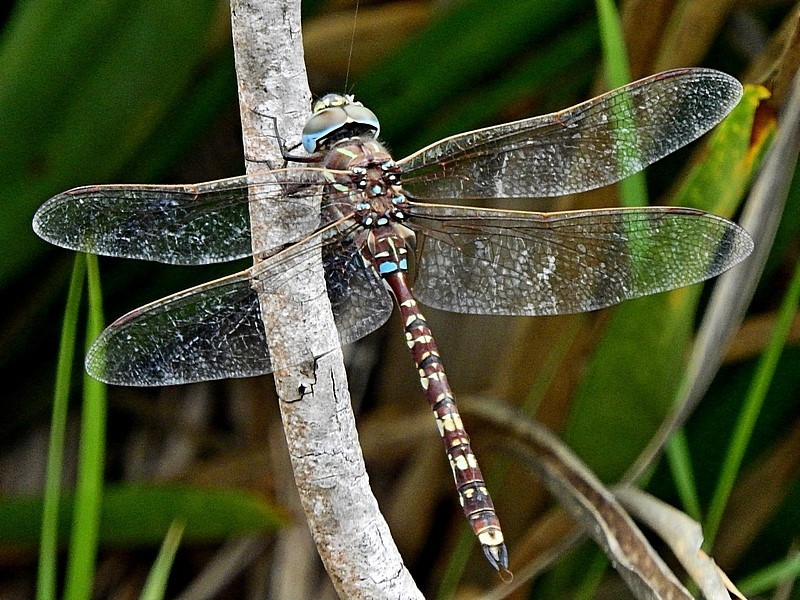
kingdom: Animalia
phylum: Arthropoda
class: Insecta
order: Odonata
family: Aeshnidae
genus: Aeshna
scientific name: Aeshna brevistyla
